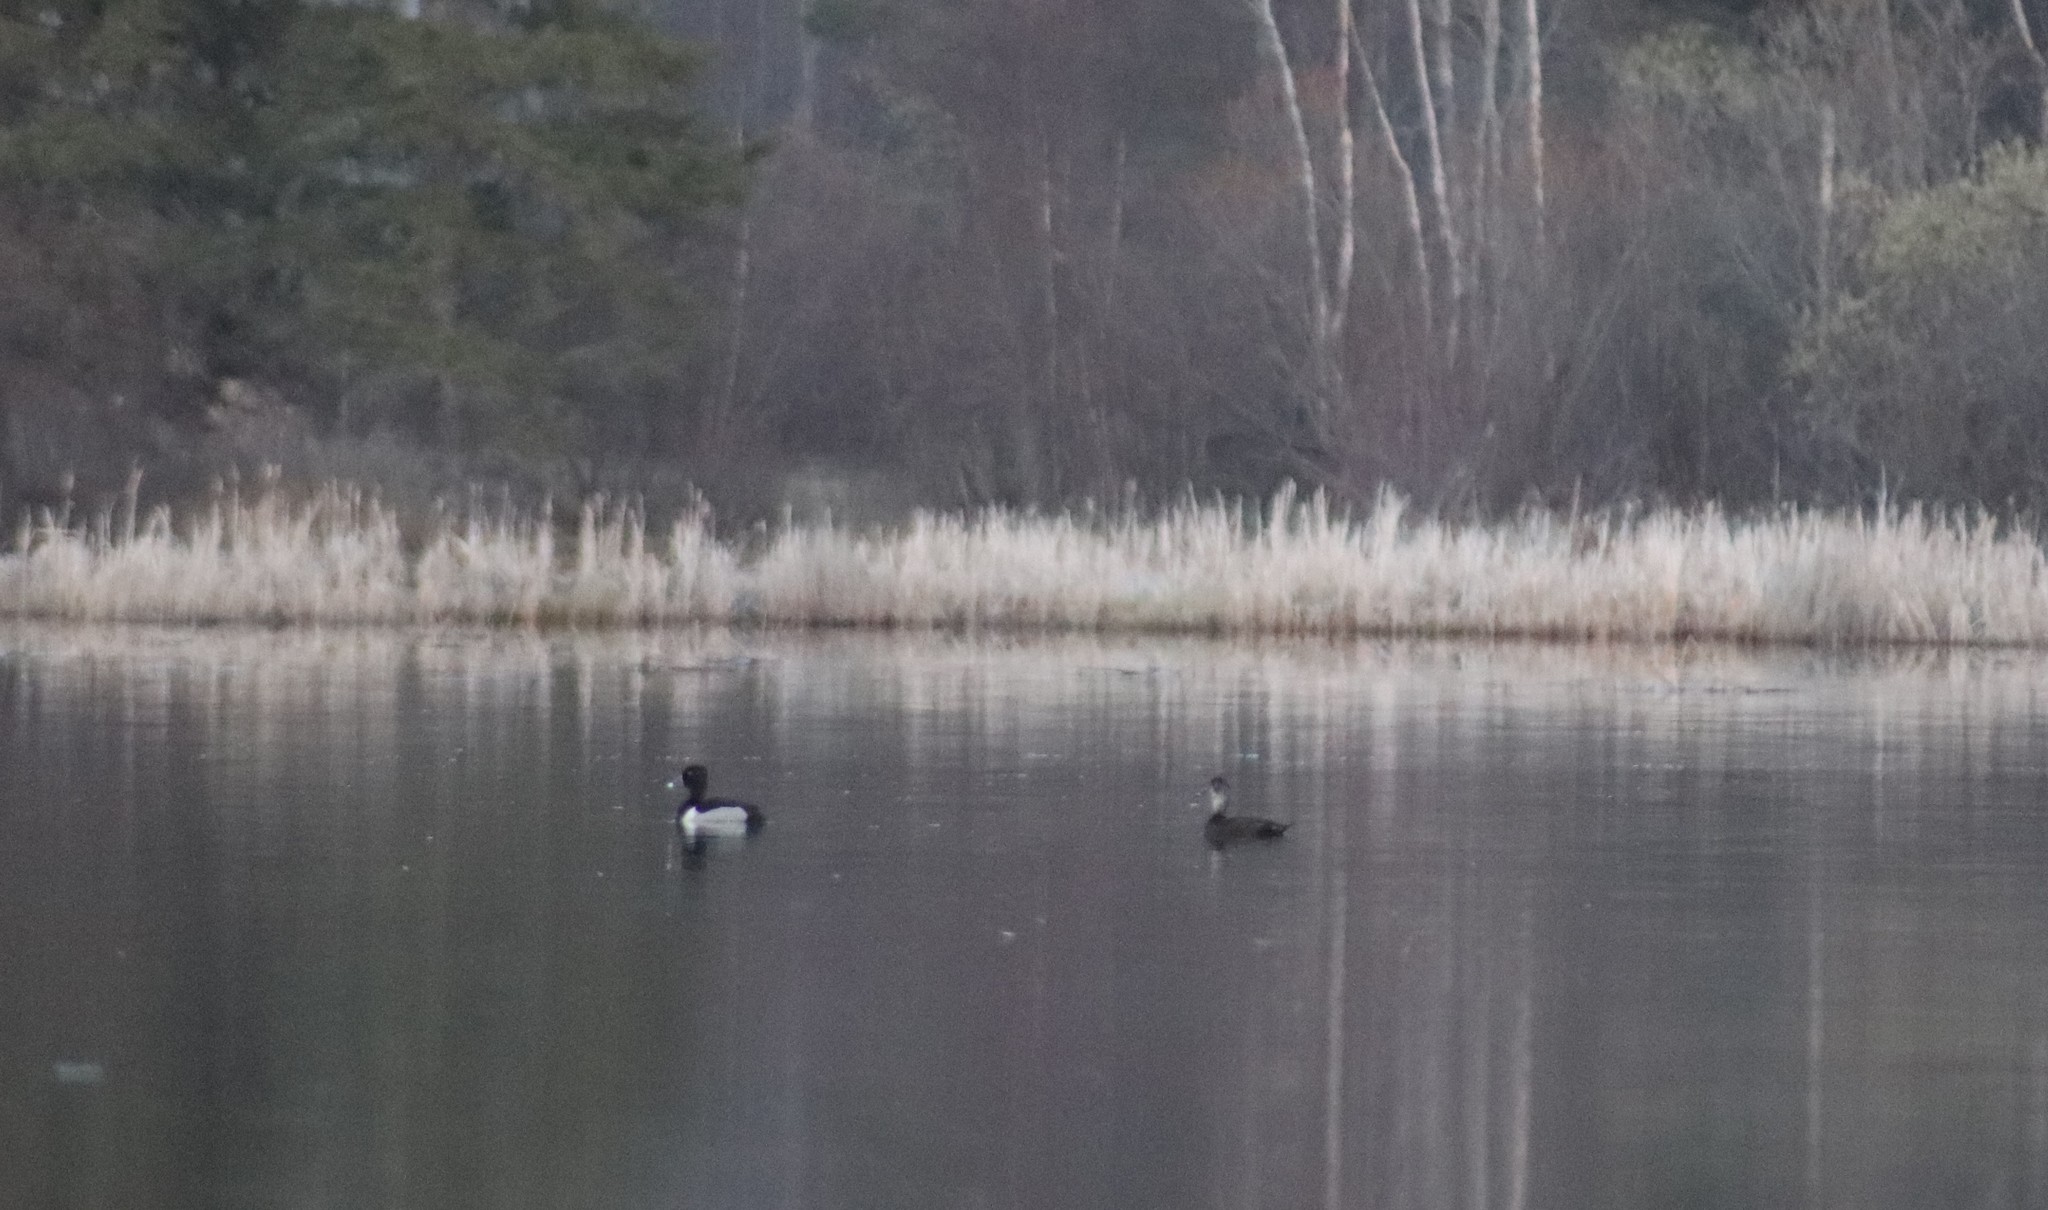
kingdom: Animalia
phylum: Chordata
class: Aves
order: Anseriformes
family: Anatidae
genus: Aythya
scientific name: Aythya collaris
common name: Ring-necked duck
